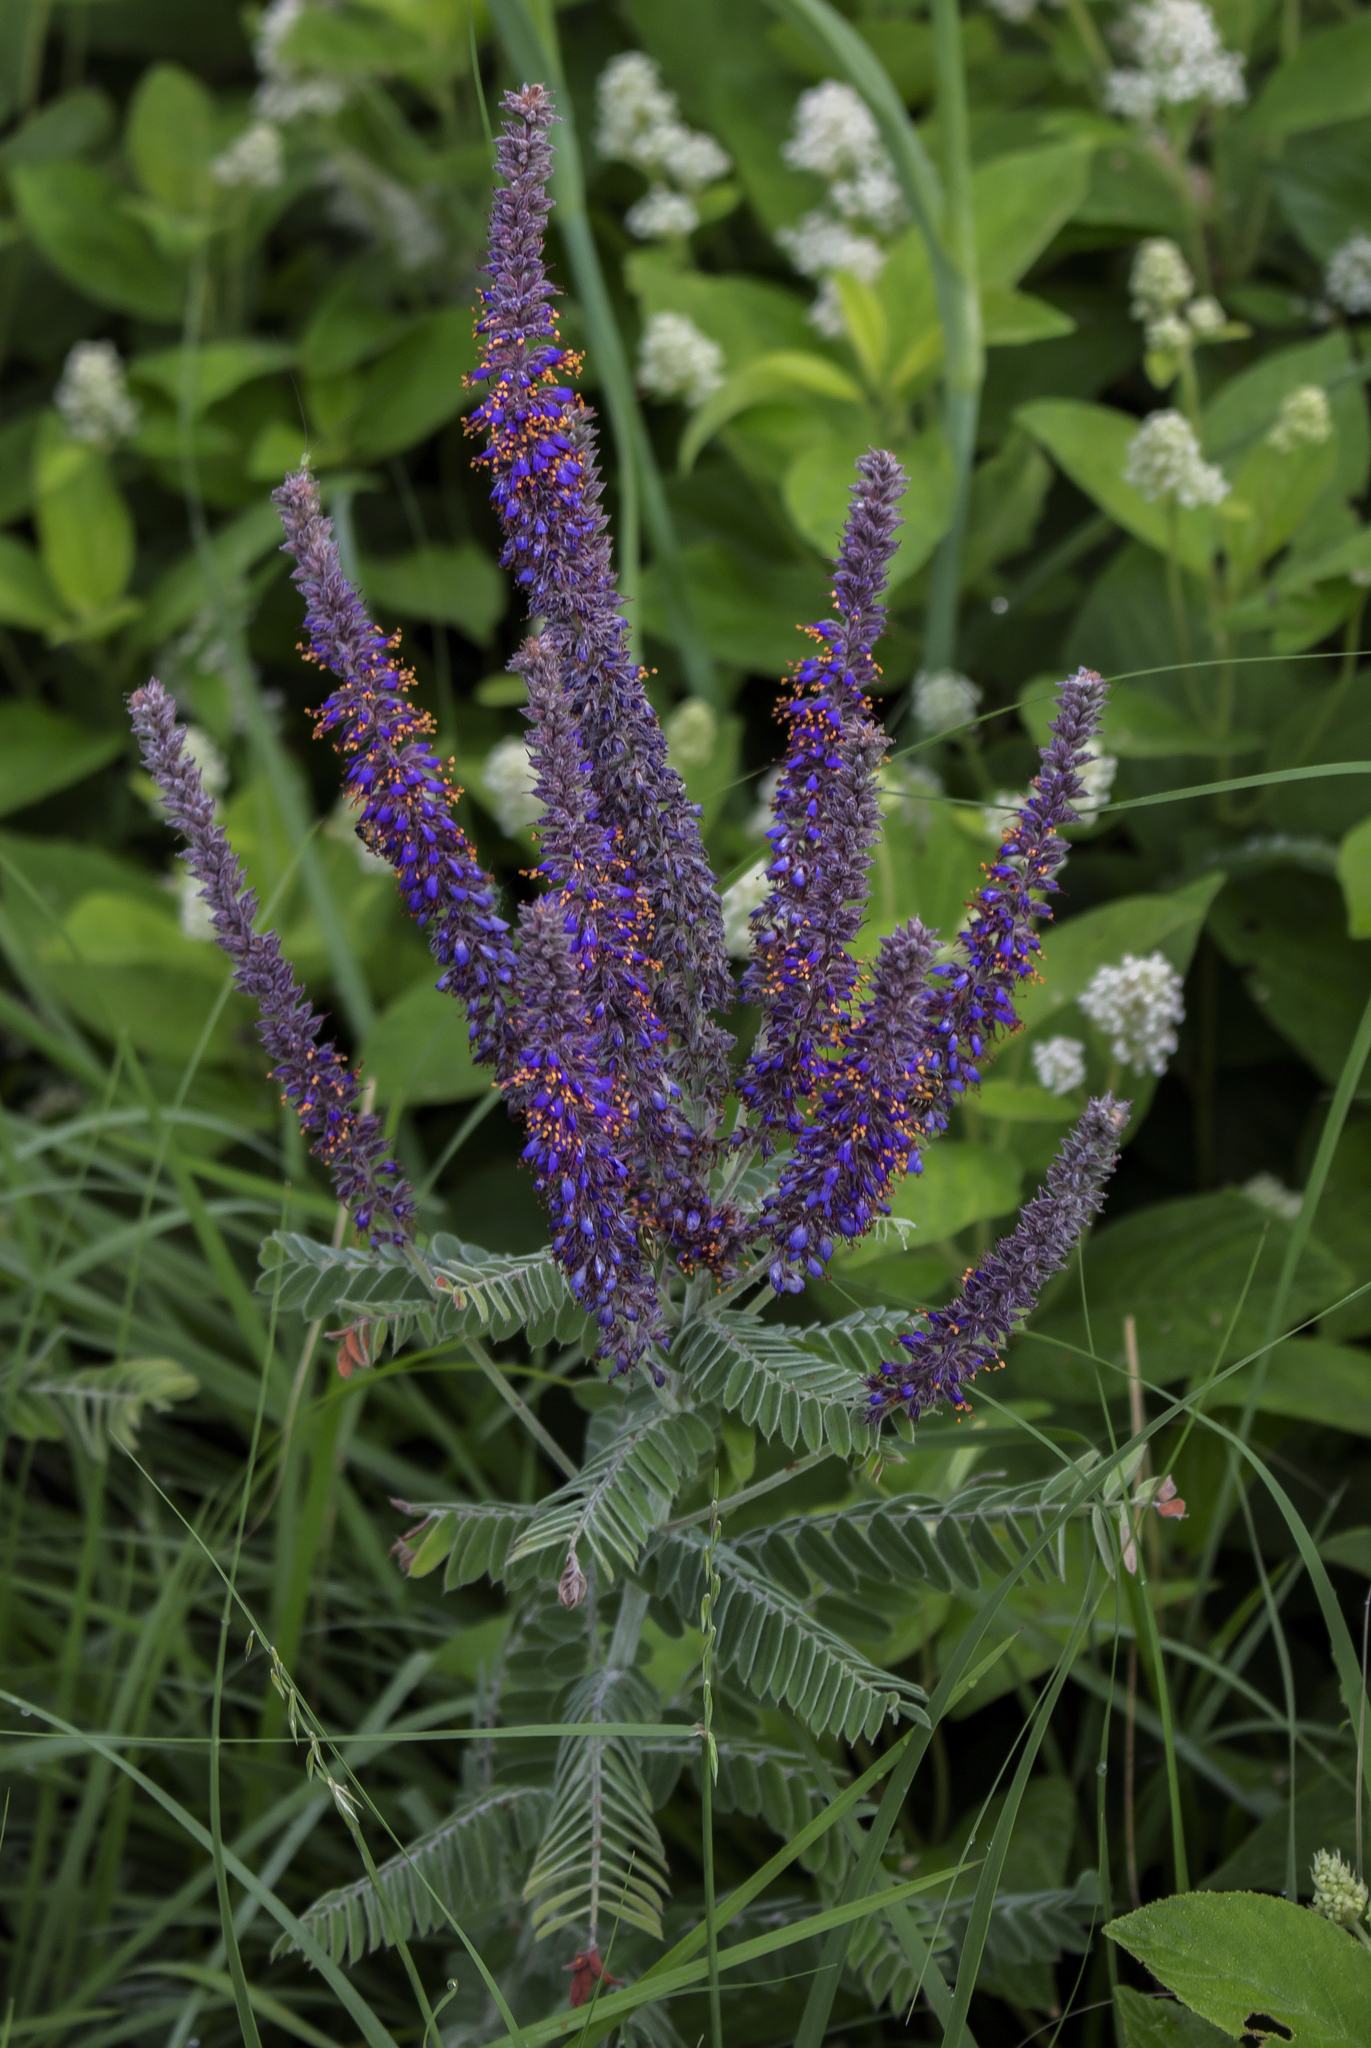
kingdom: Plantae
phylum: Tracheophyta
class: Magnoliopsida
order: Fabales
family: Fabaceae
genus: Amorpha
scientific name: Amorpha canescens
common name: Leadplant
